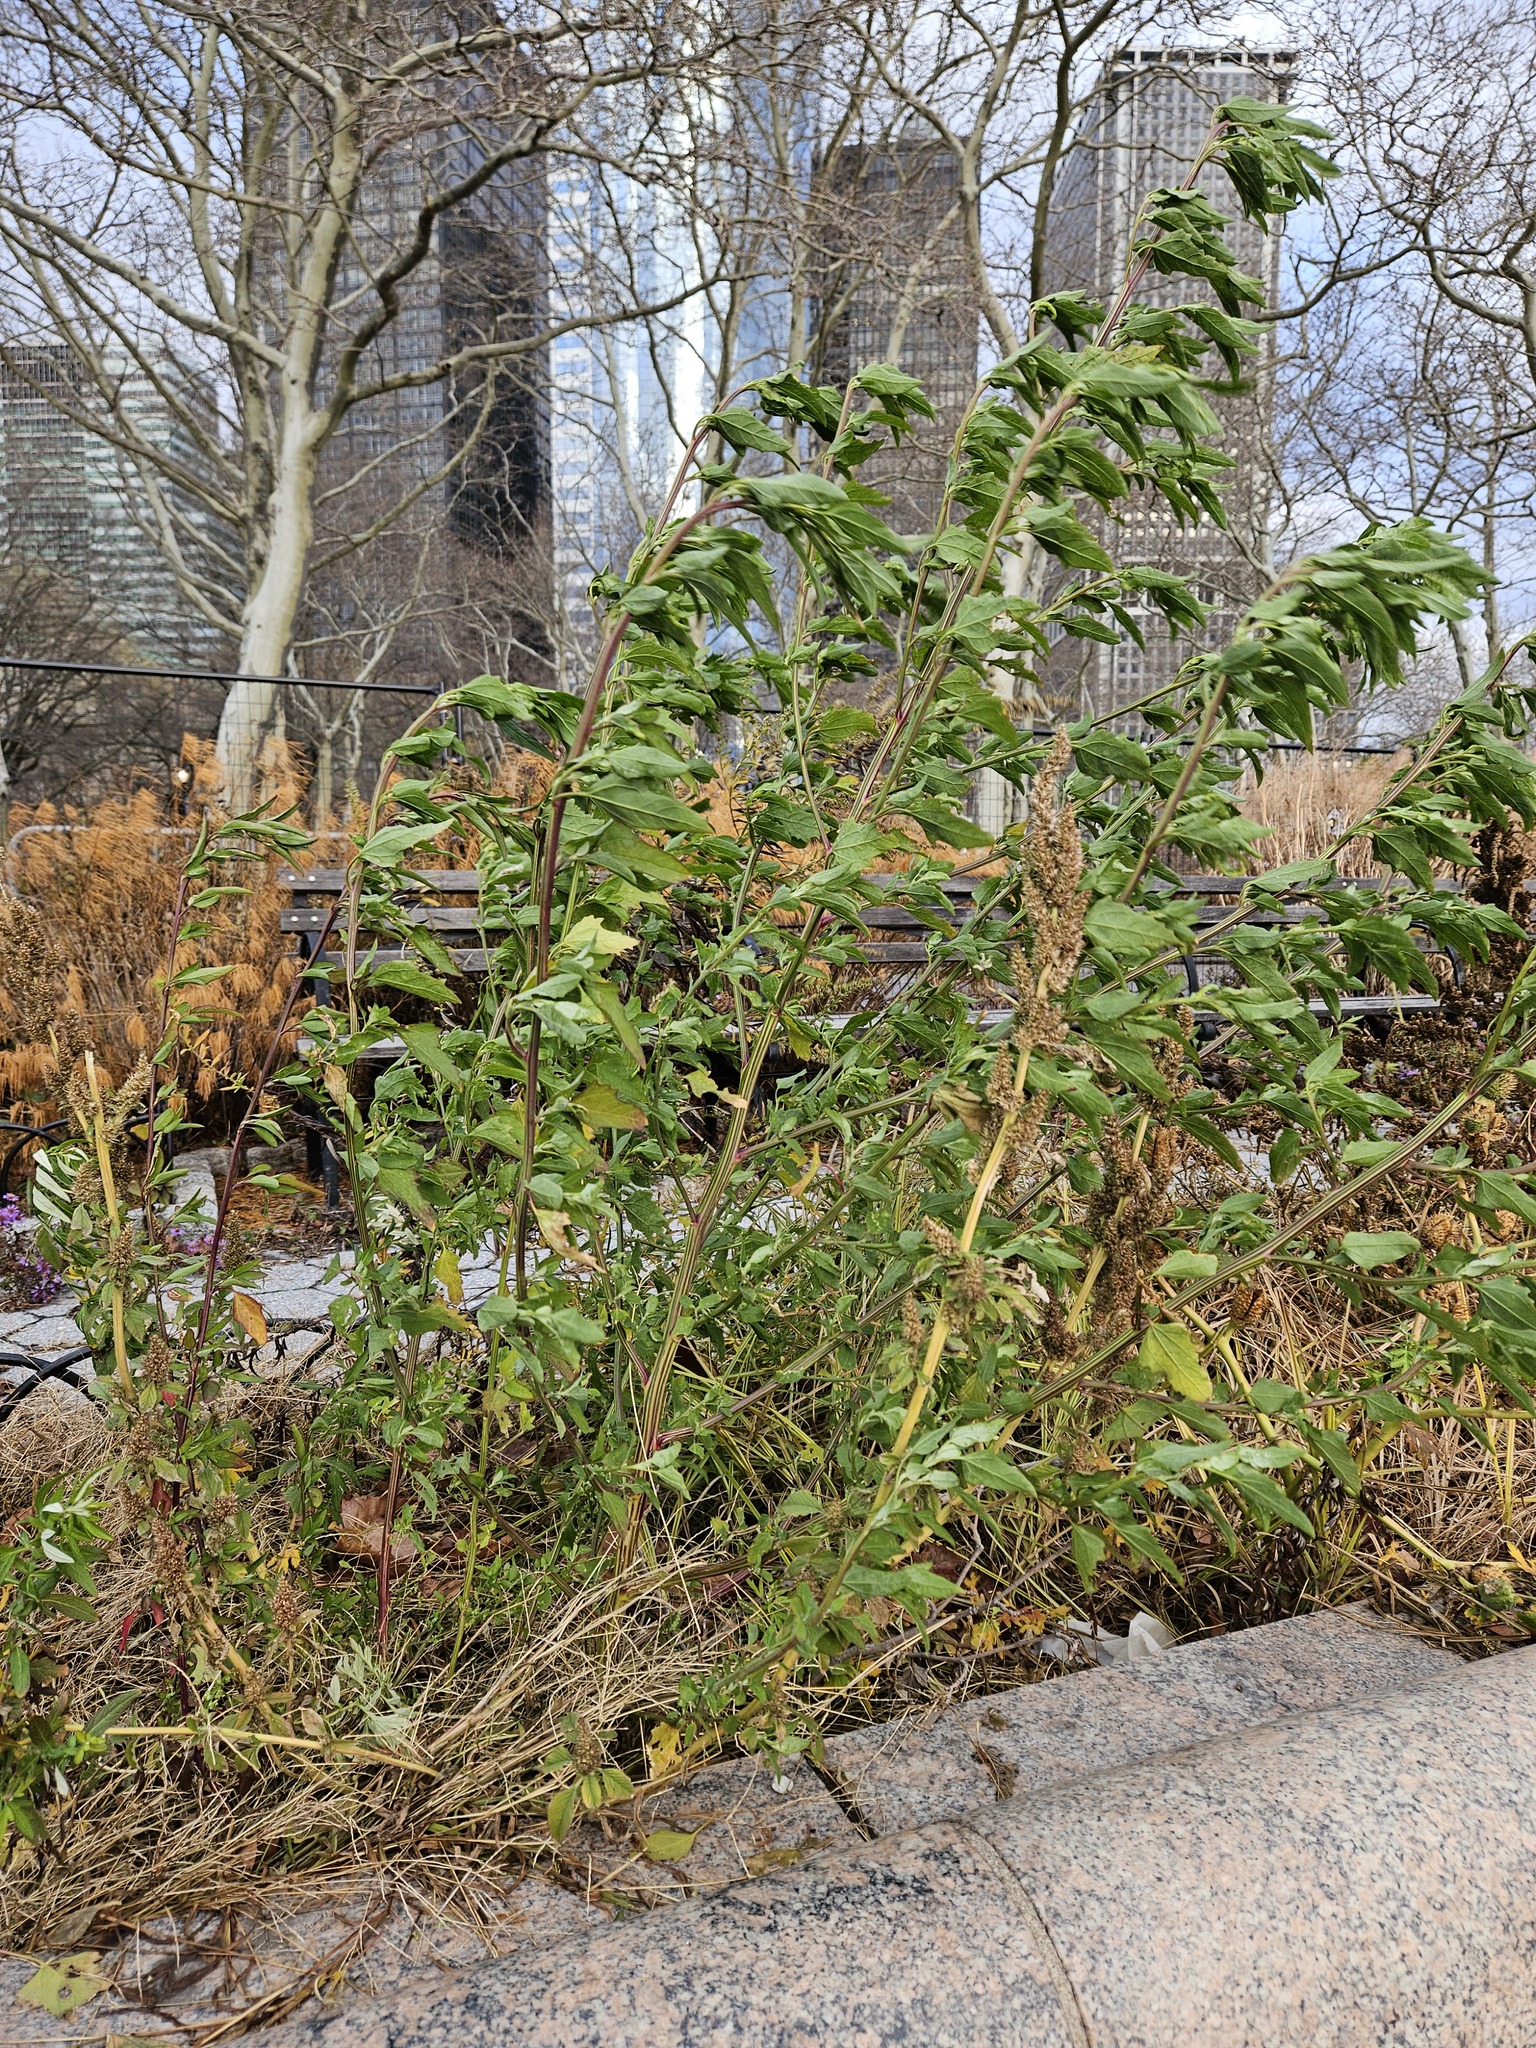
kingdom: Plantae
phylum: Tracheophyta
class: Magnoliopsida
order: Caryophyllales
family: Amaranthaceae
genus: Chenopodium
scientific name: Chenopodium album
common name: Fat-hen
